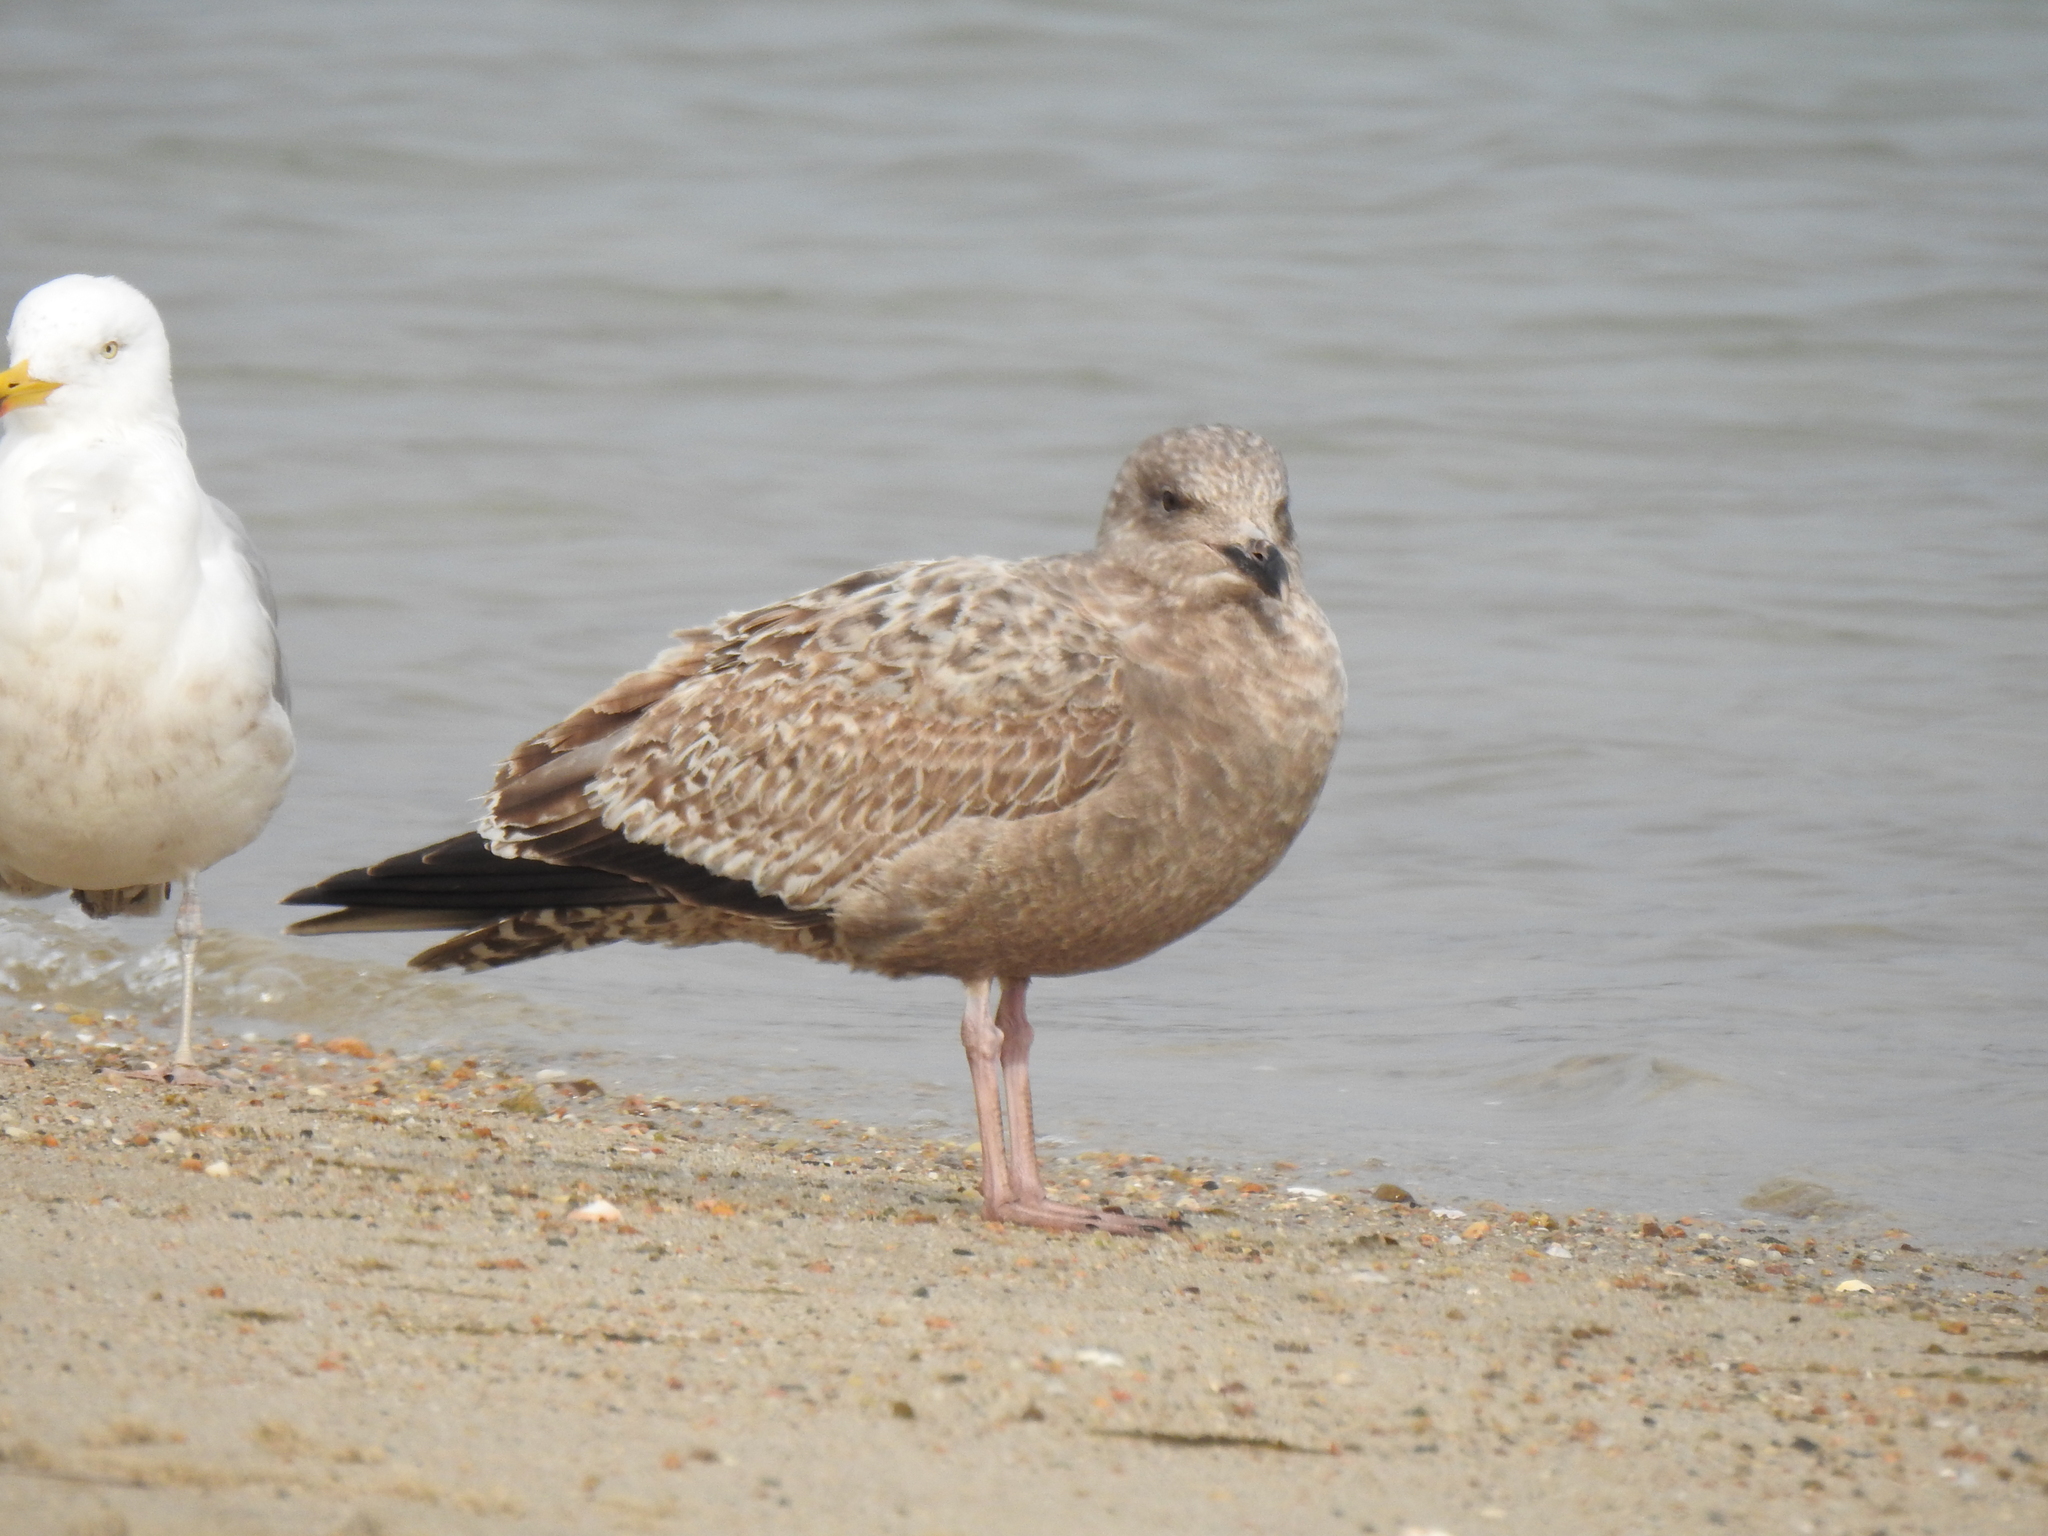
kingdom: Animalia
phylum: Chordata
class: Aves
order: Charadriiformes
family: Laridae
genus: Larus
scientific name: Larus smithsonianus
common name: American herring gull
